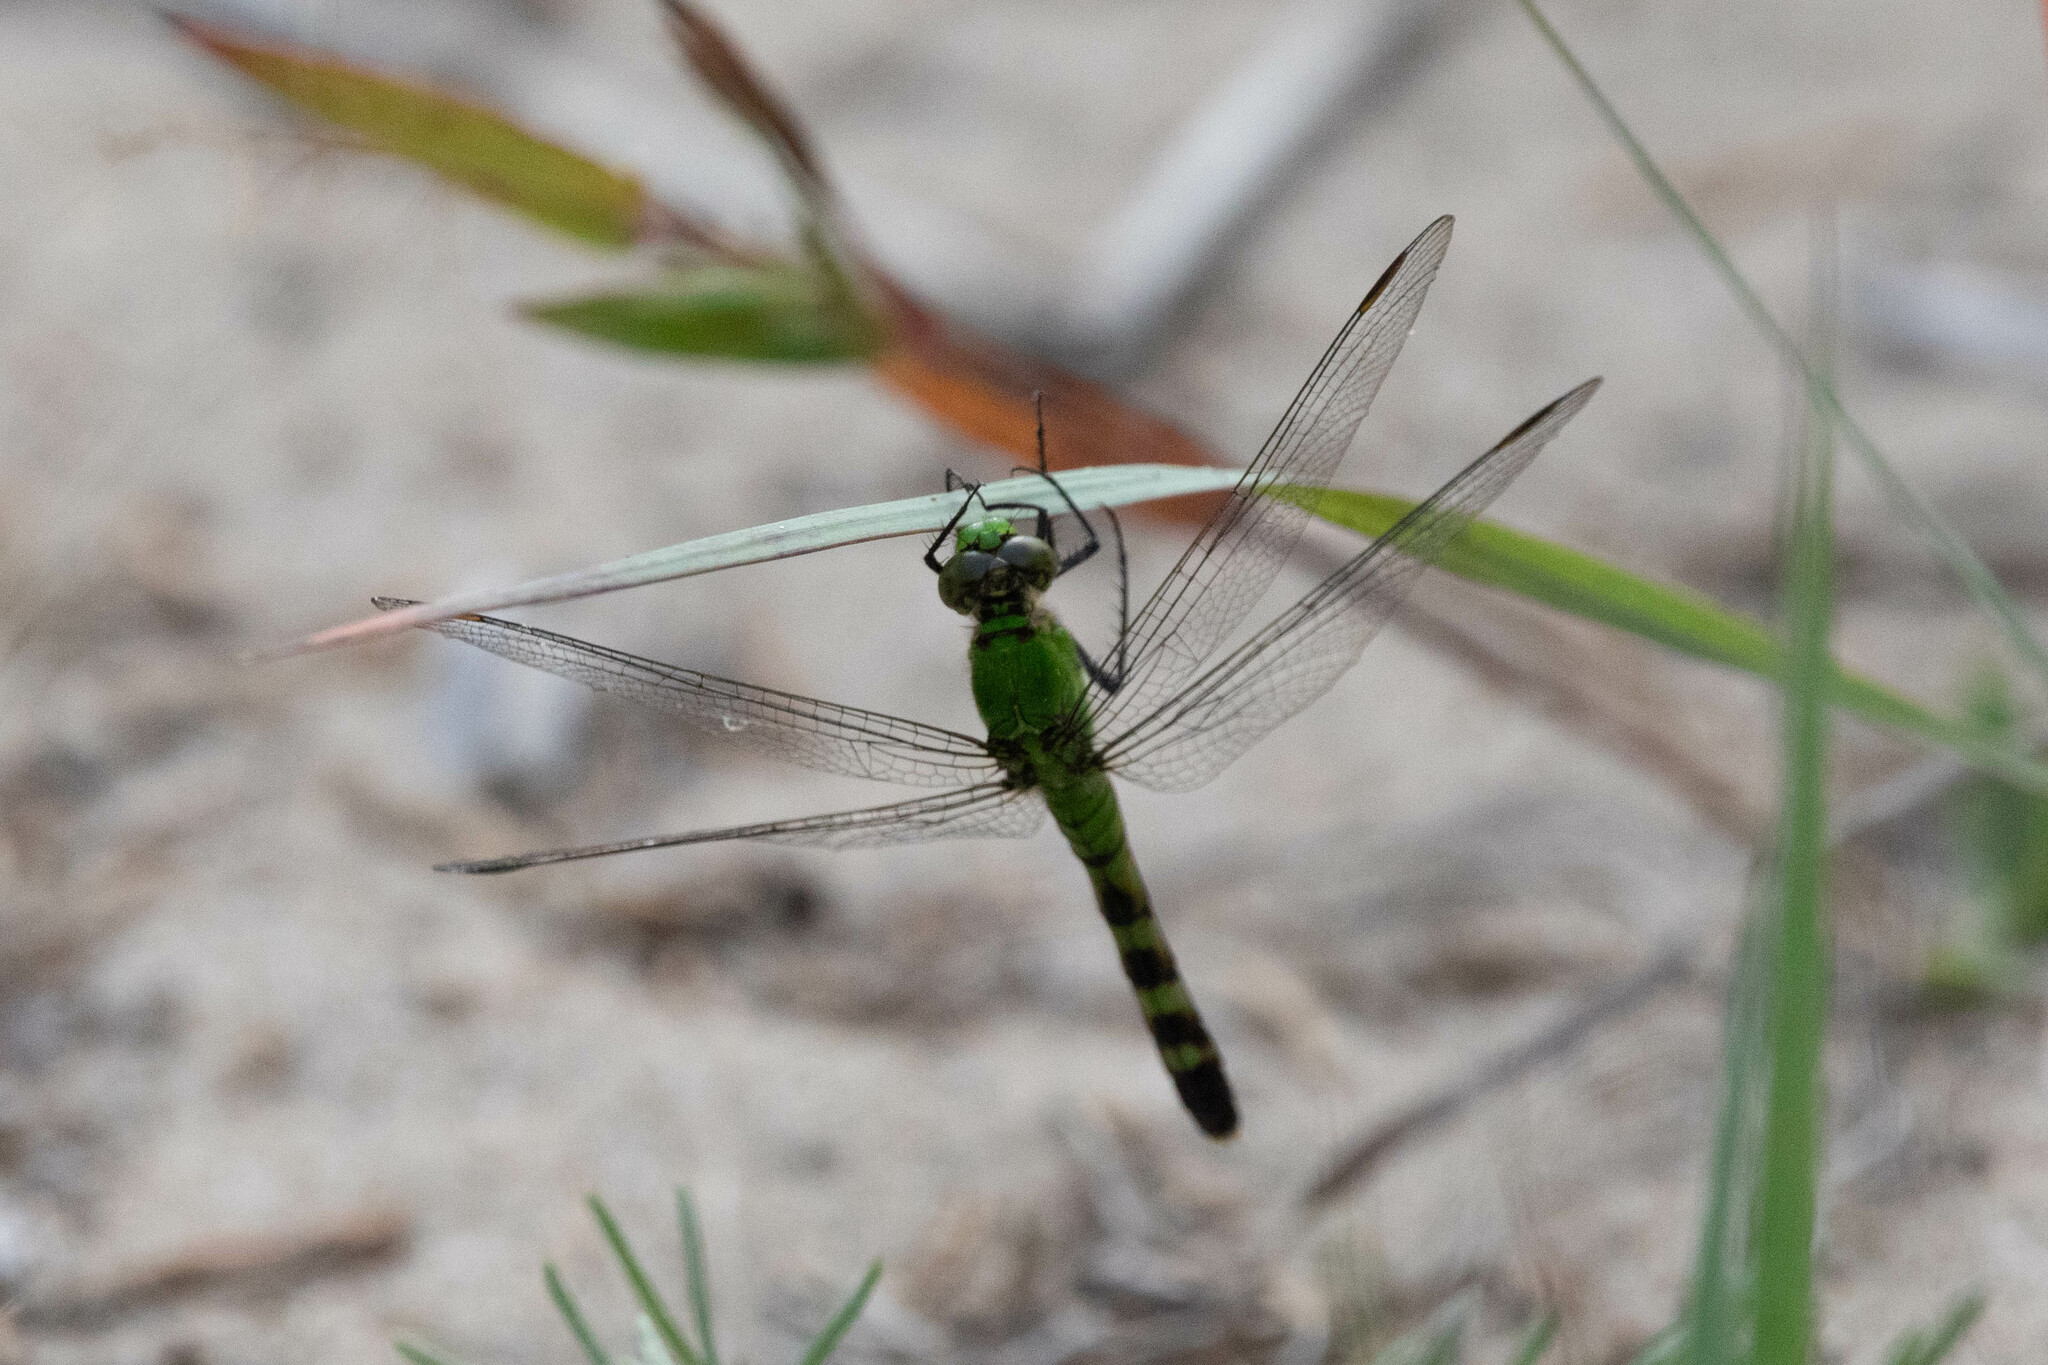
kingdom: Animalia
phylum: Arthropoda
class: Insecta
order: Odonata
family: Libellulidae
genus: Erythemis
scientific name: Erythemis simplicicollis
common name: Eastern pondhawk
